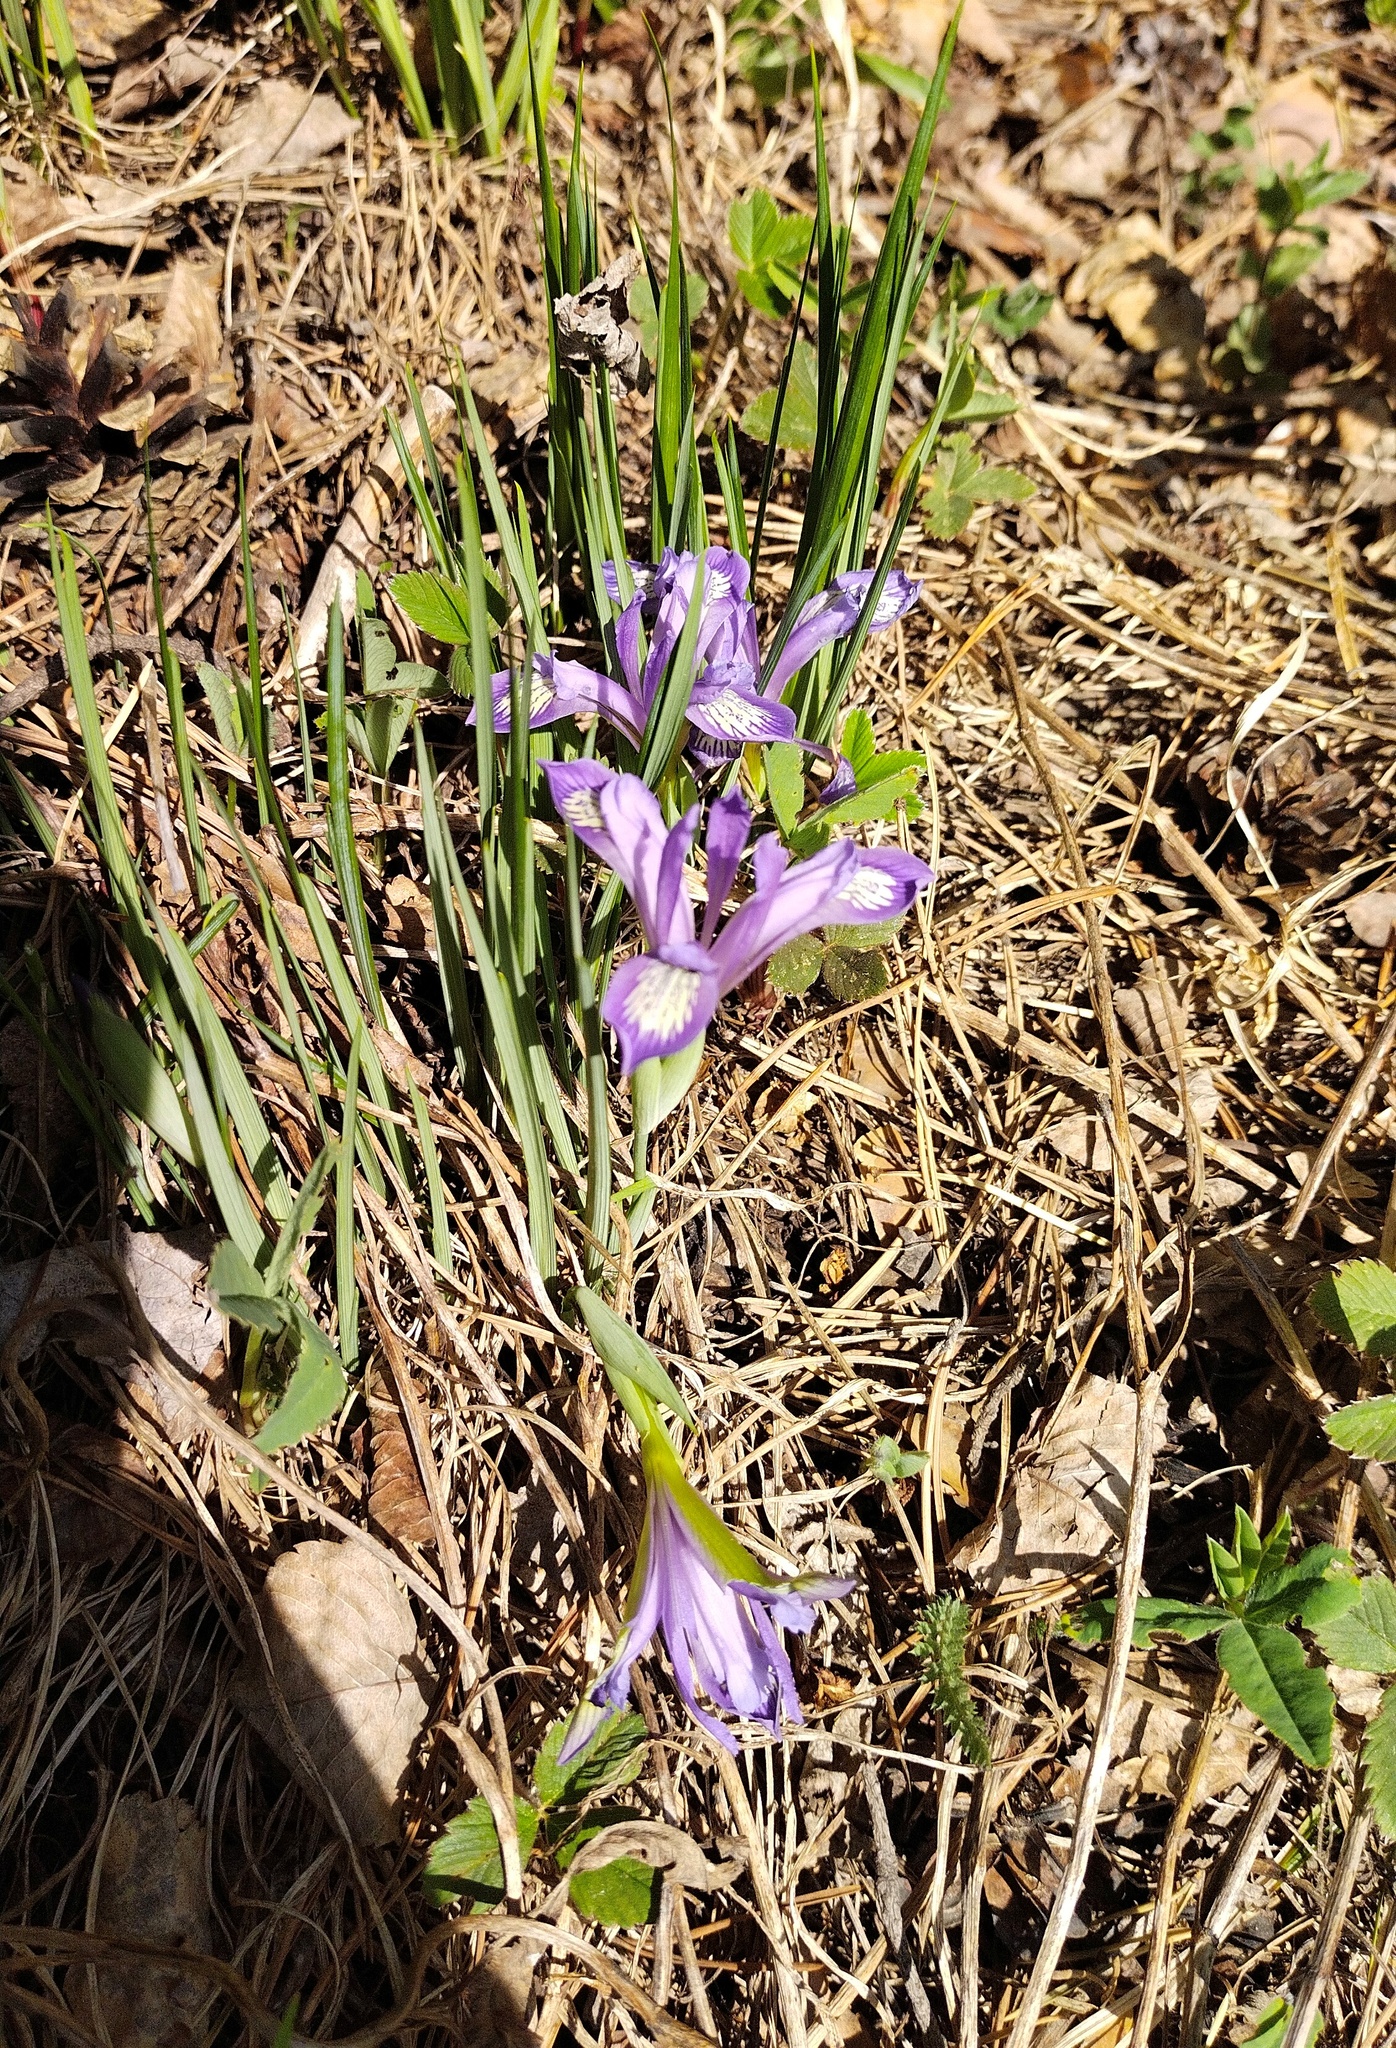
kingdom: Plantae
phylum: Tracheophyta
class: Liliopsida
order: Asparagales
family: Iridaceae
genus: Iris
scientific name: Iris ruthenica
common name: Purple-bract iris
